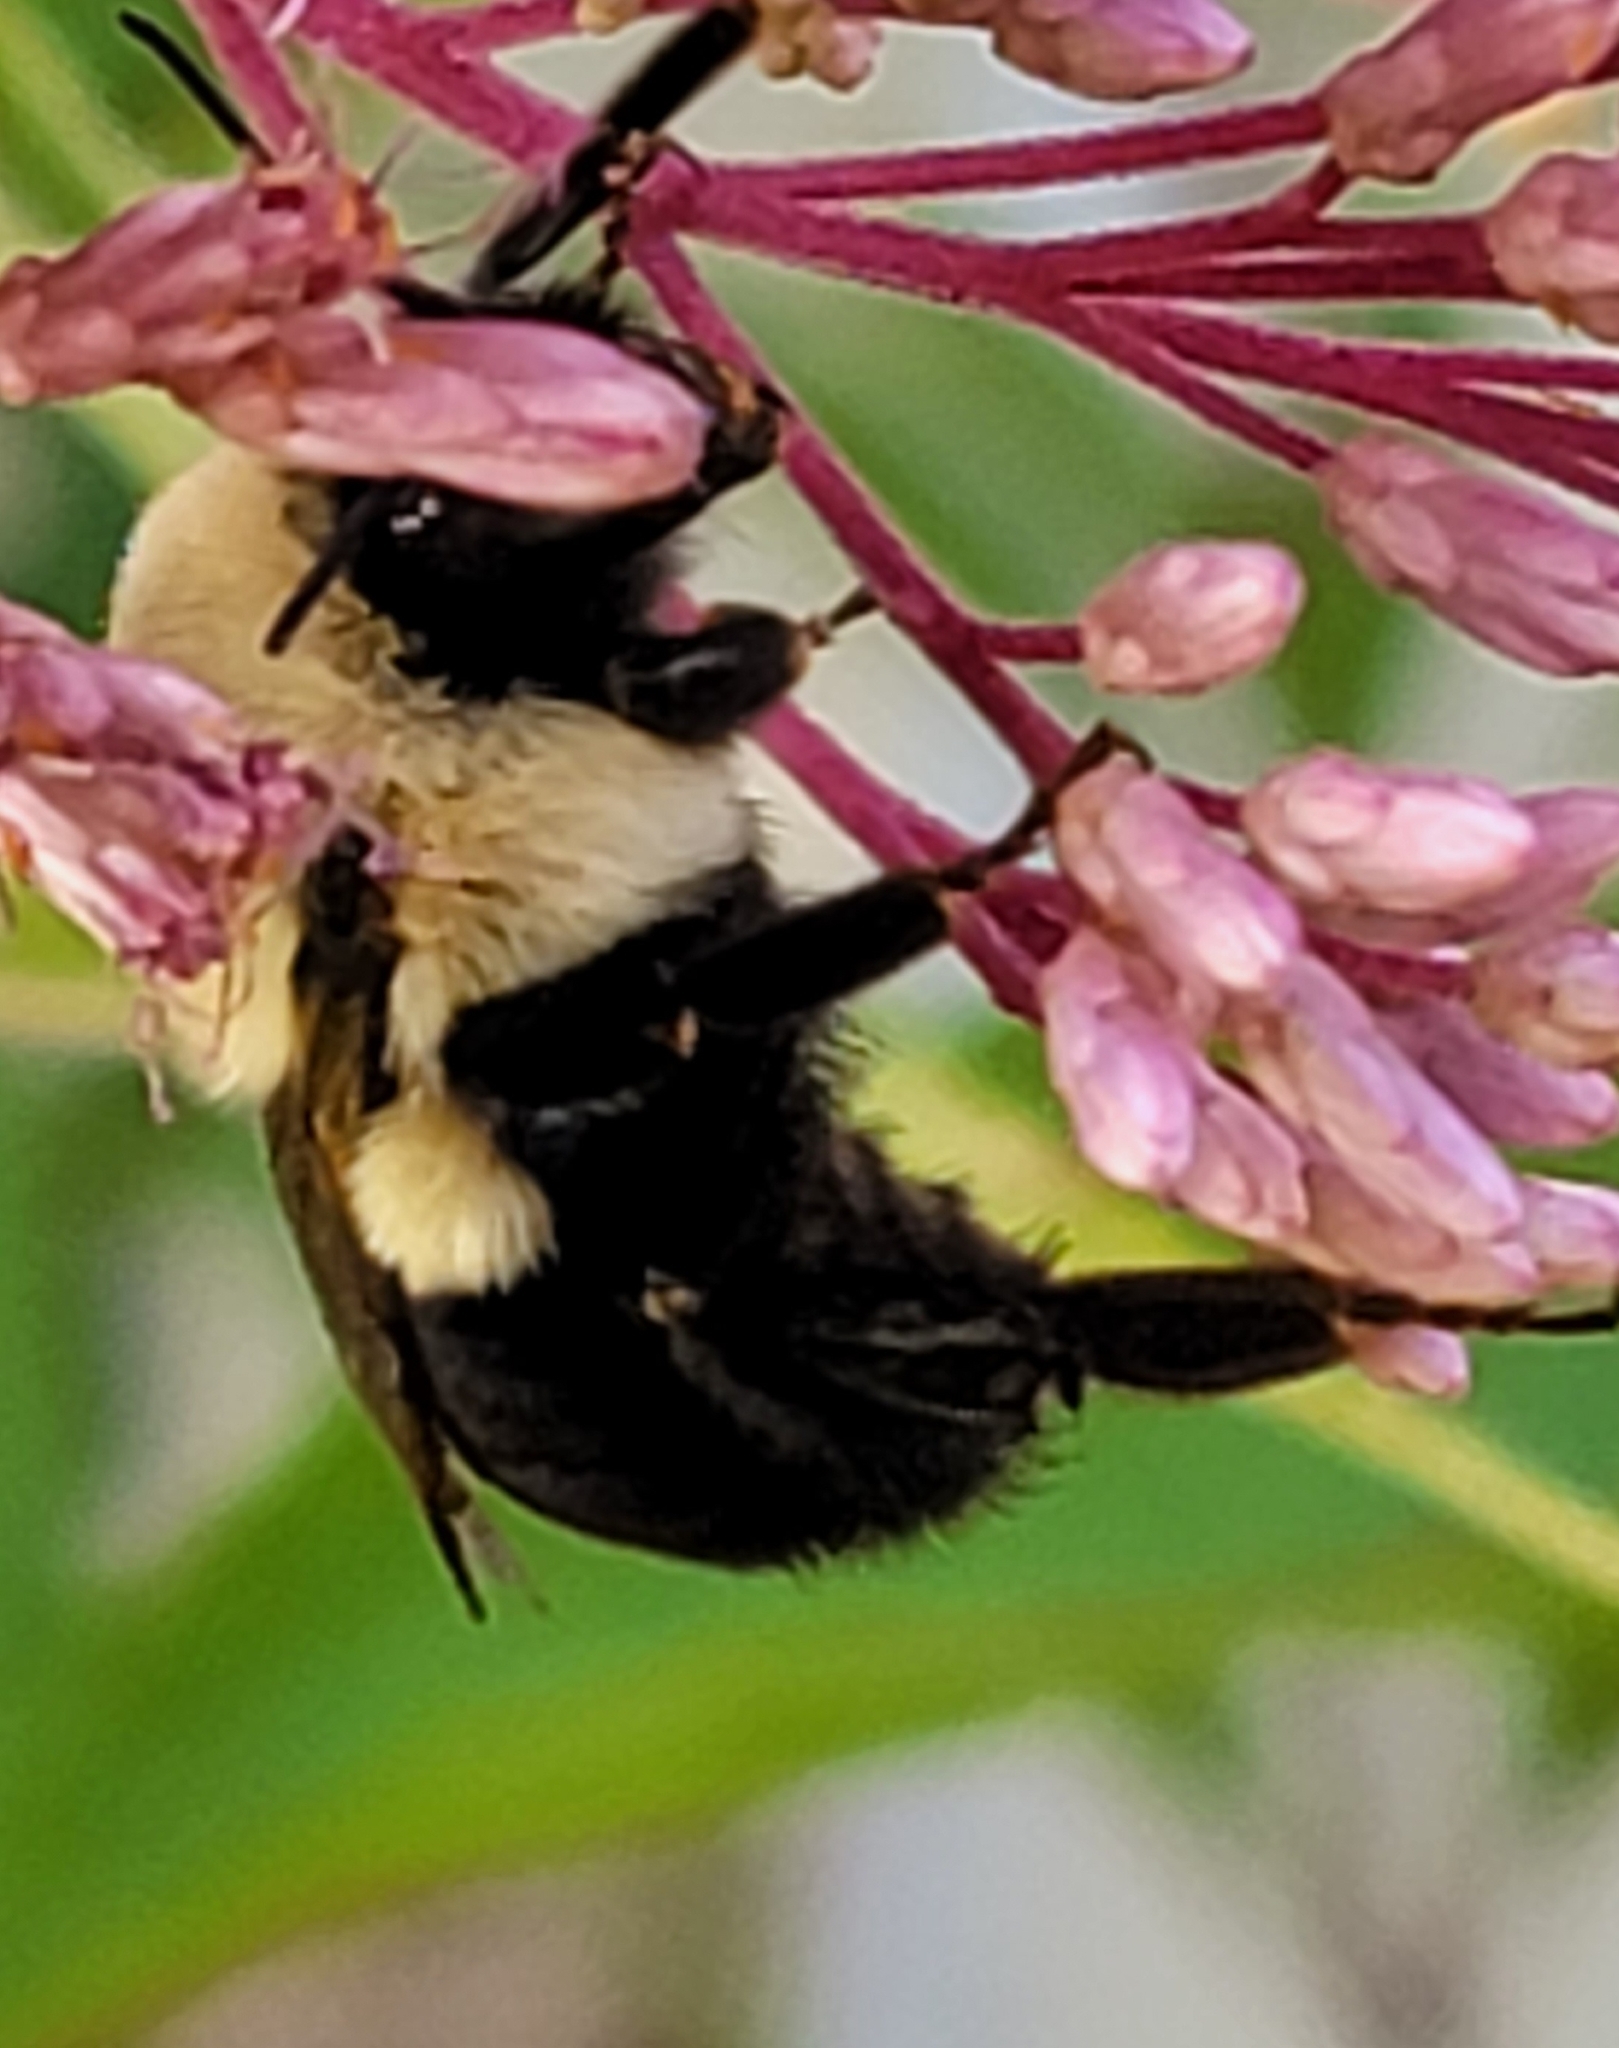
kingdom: Animalia
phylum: Arthropoda
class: Insecta
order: Hymenoptera
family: Apidae
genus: Bombus
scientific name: Bombus impatiens
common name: Common eastern bumble bee
